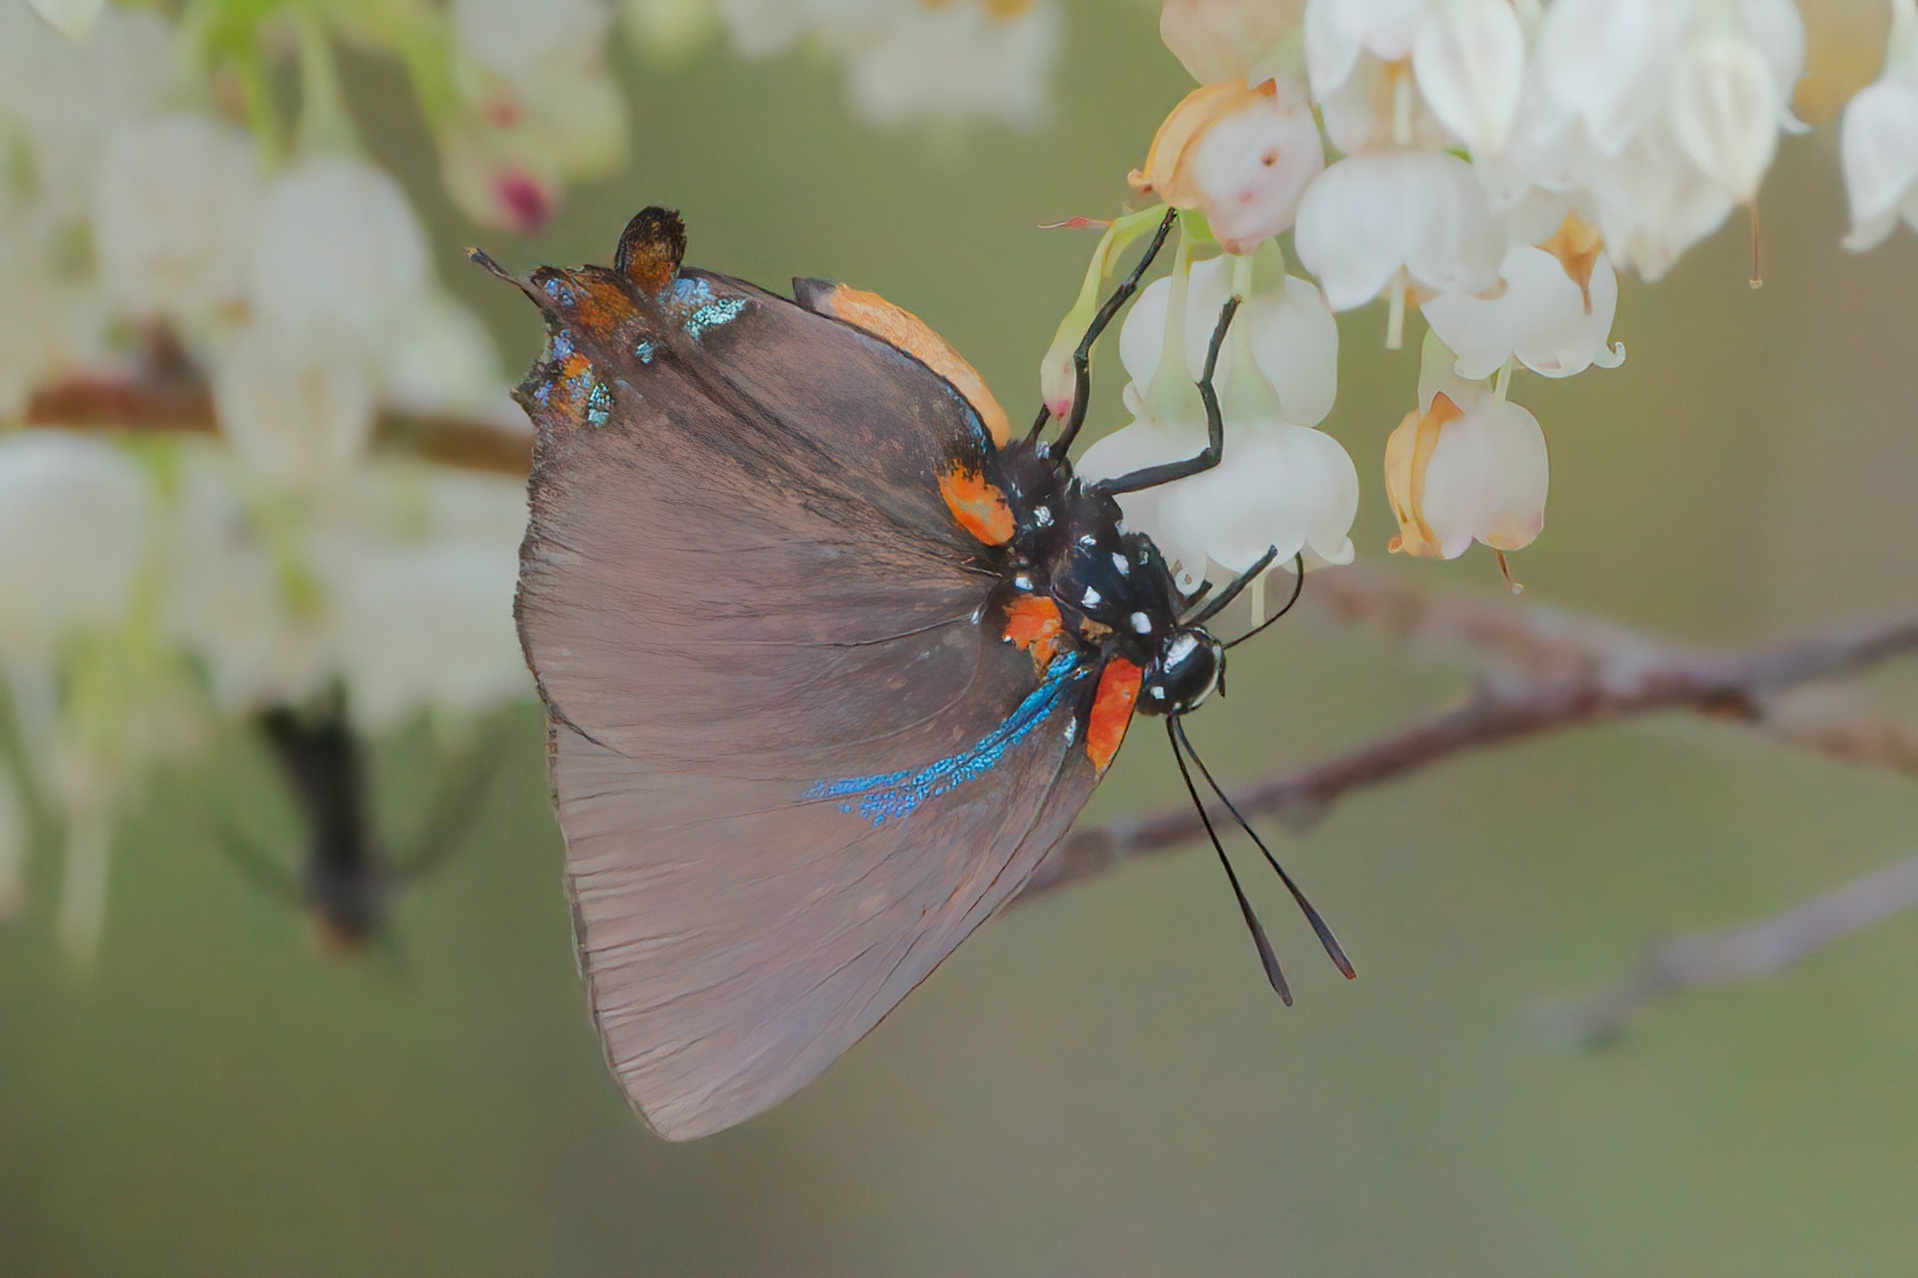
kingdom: Animalia
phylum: Arthropoda
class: Insecta
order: Lepidoptera
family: Lycaenidae
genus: Atlides
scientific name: Atlides halesus
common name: Great purple hairstreak
